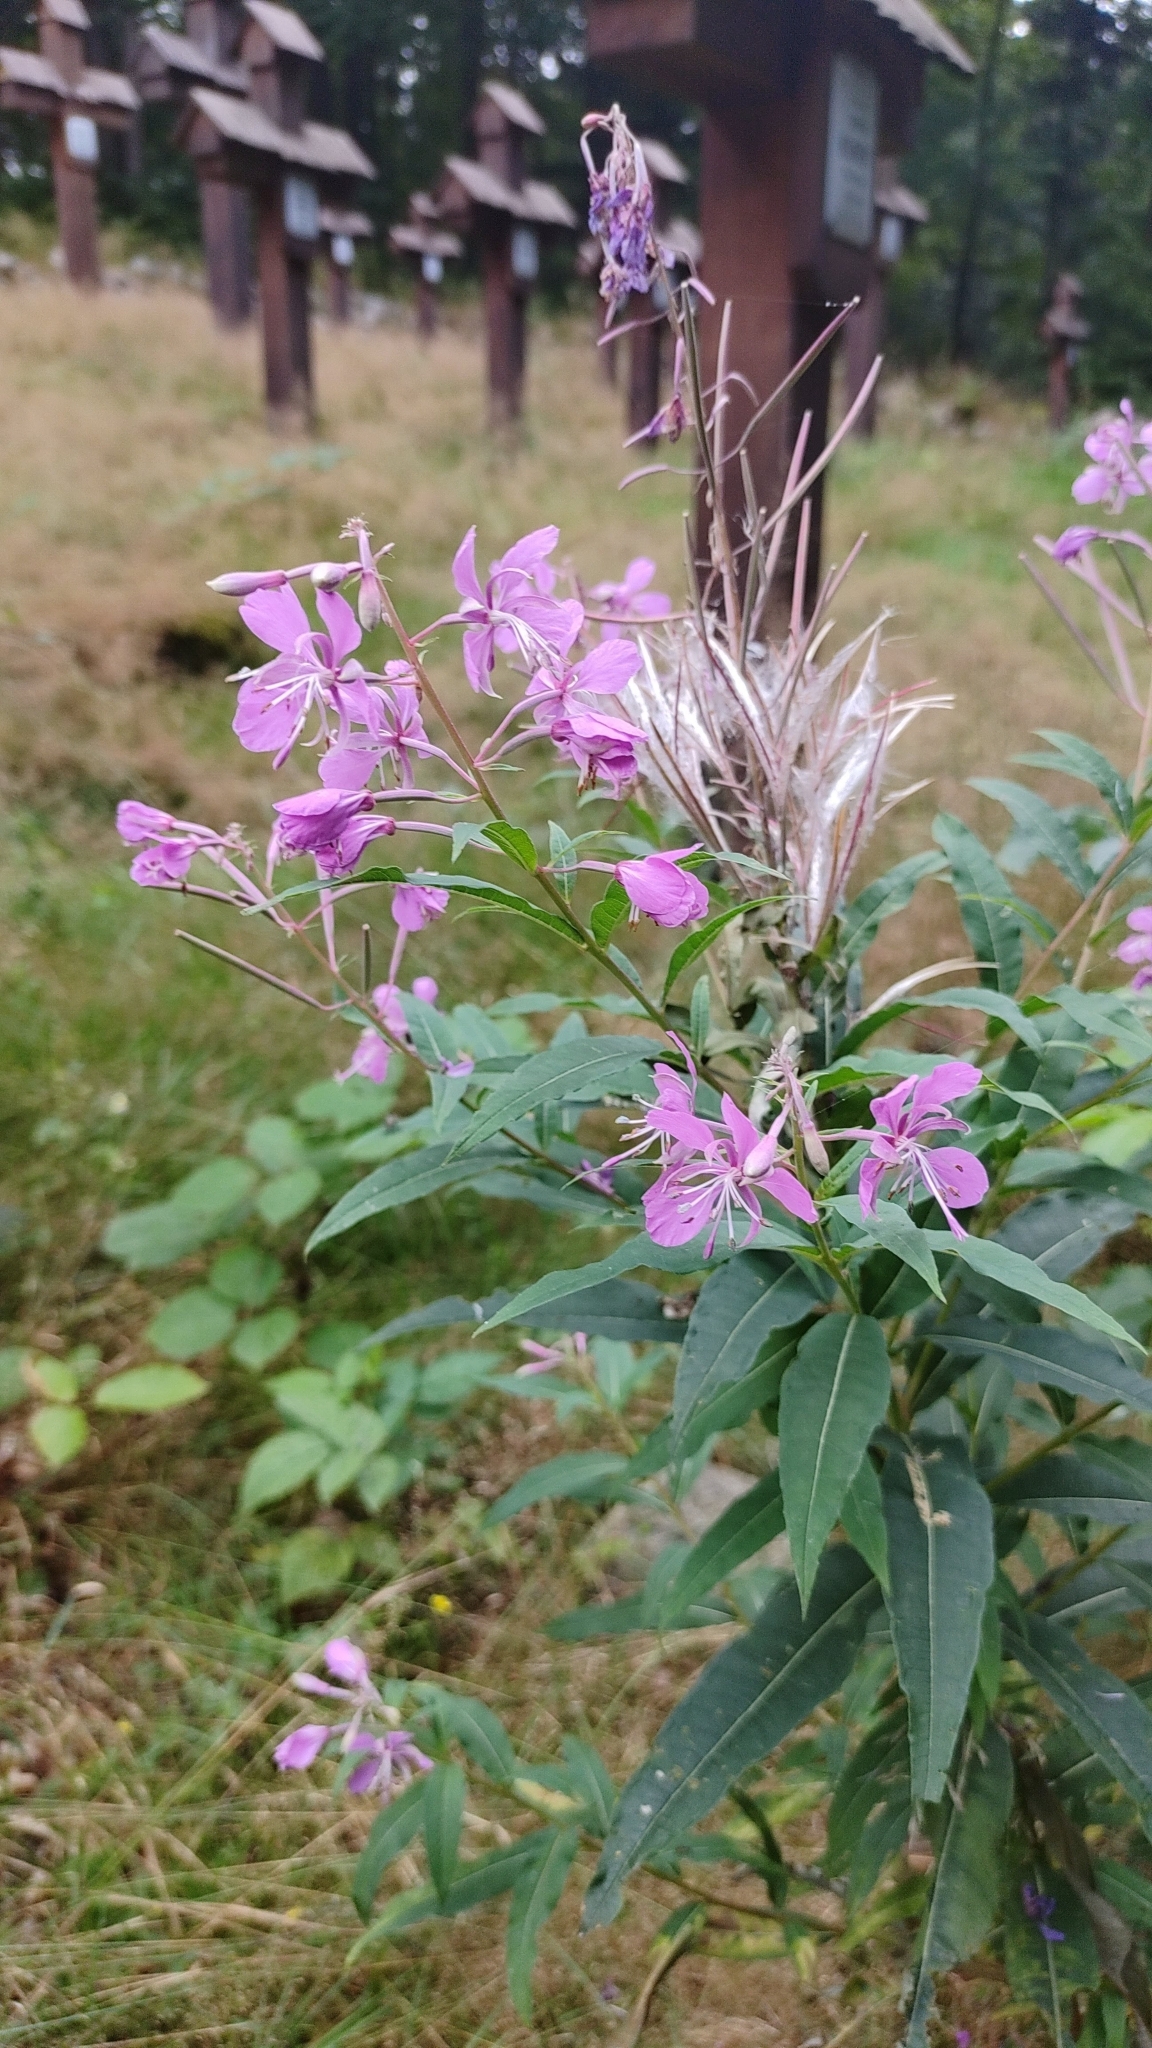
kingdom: Plantae
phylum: Tracheophyta
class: Magnoliopsida
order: Myrtales
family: Onagraceae
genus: Chamaenerion
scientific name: Chamaenerion angustifolium
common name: Fireweed
